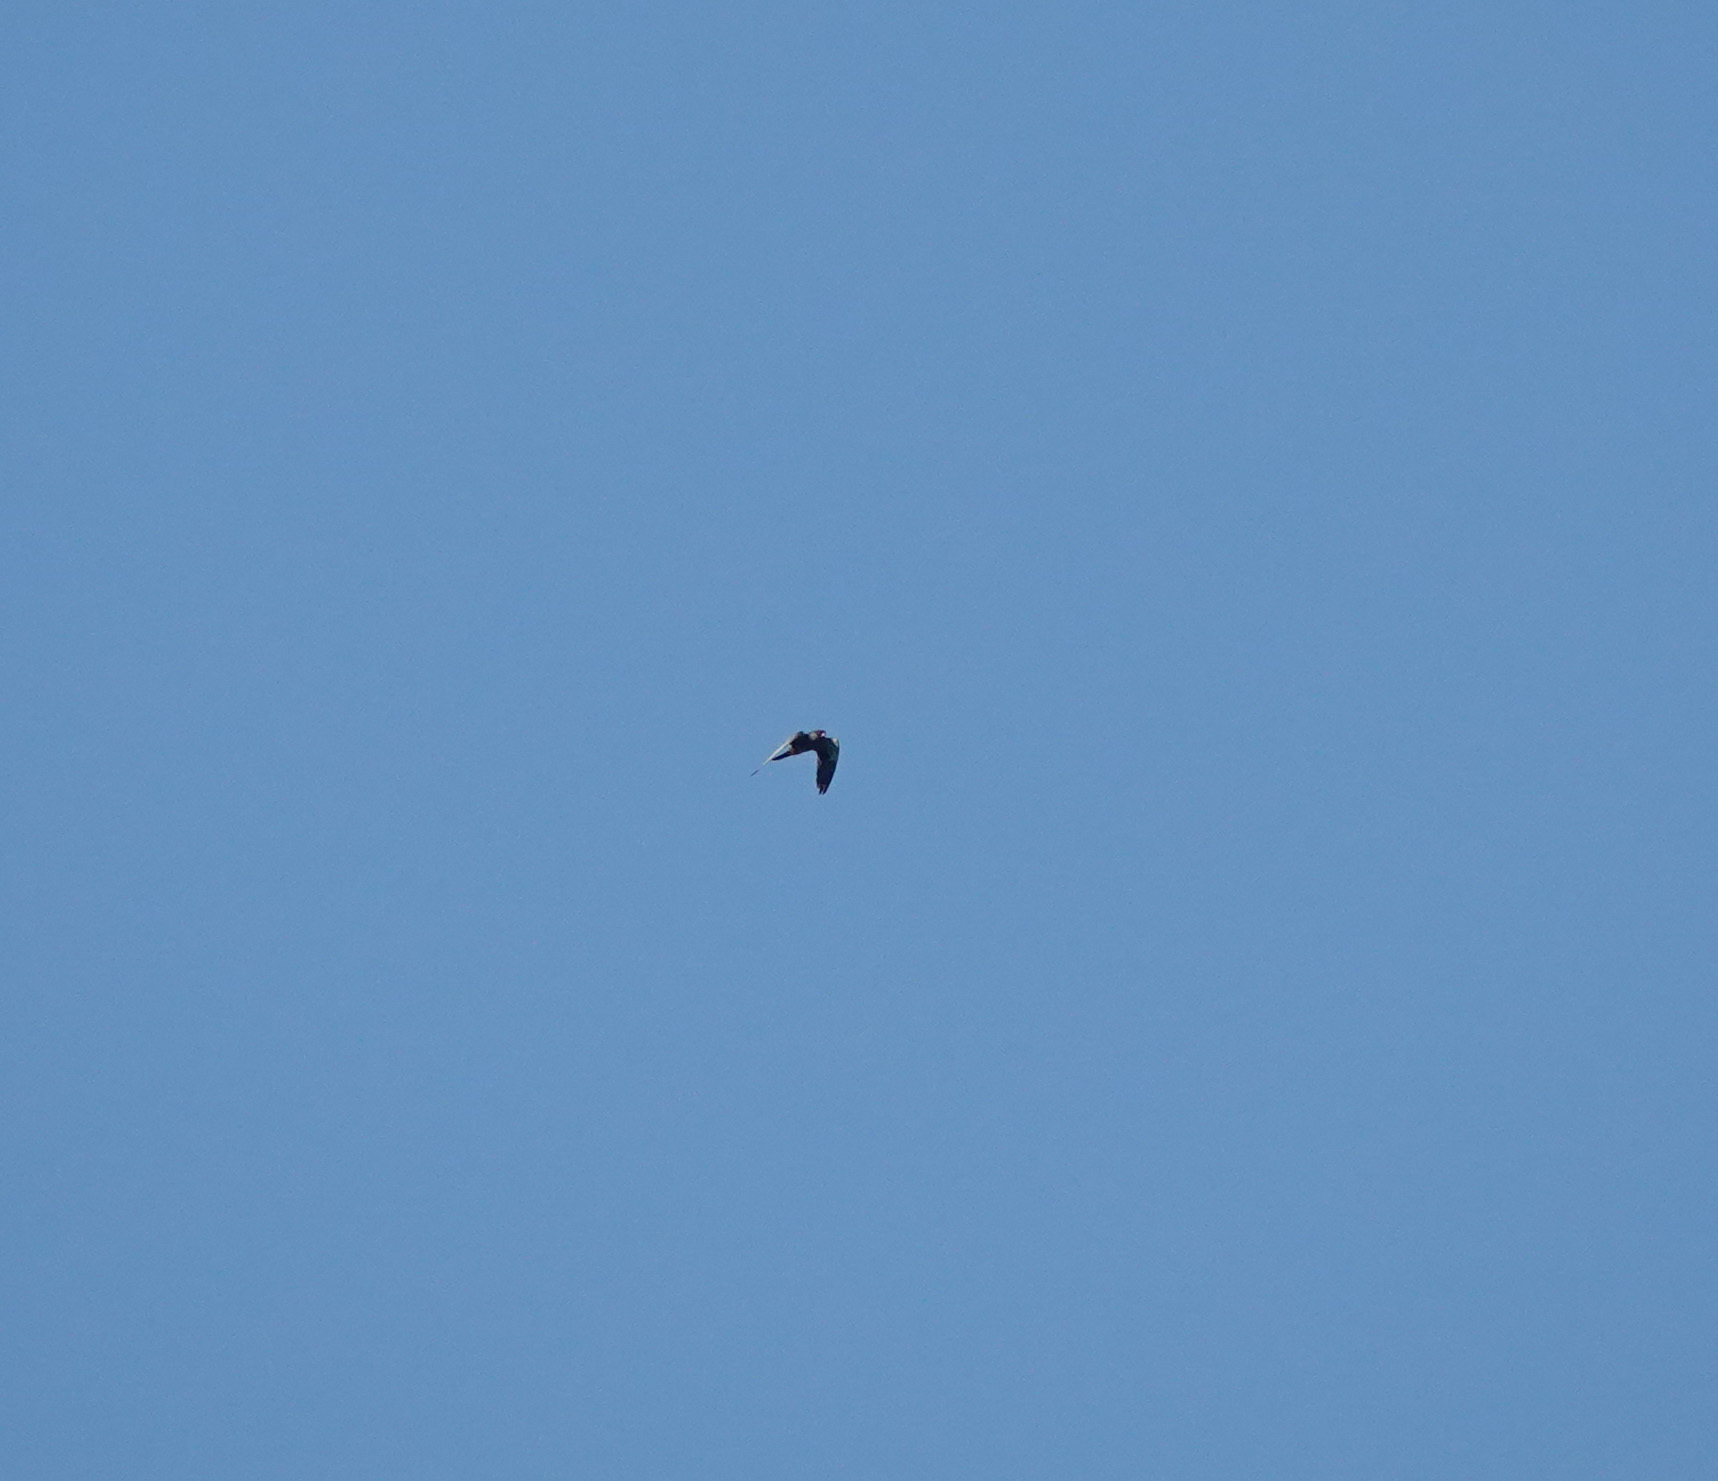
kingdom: Animalia
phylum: Chordata
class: Aves
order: Falconiformes
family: Falconidae
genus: Falco
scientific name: Falco amurensis
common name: Amur falcon
